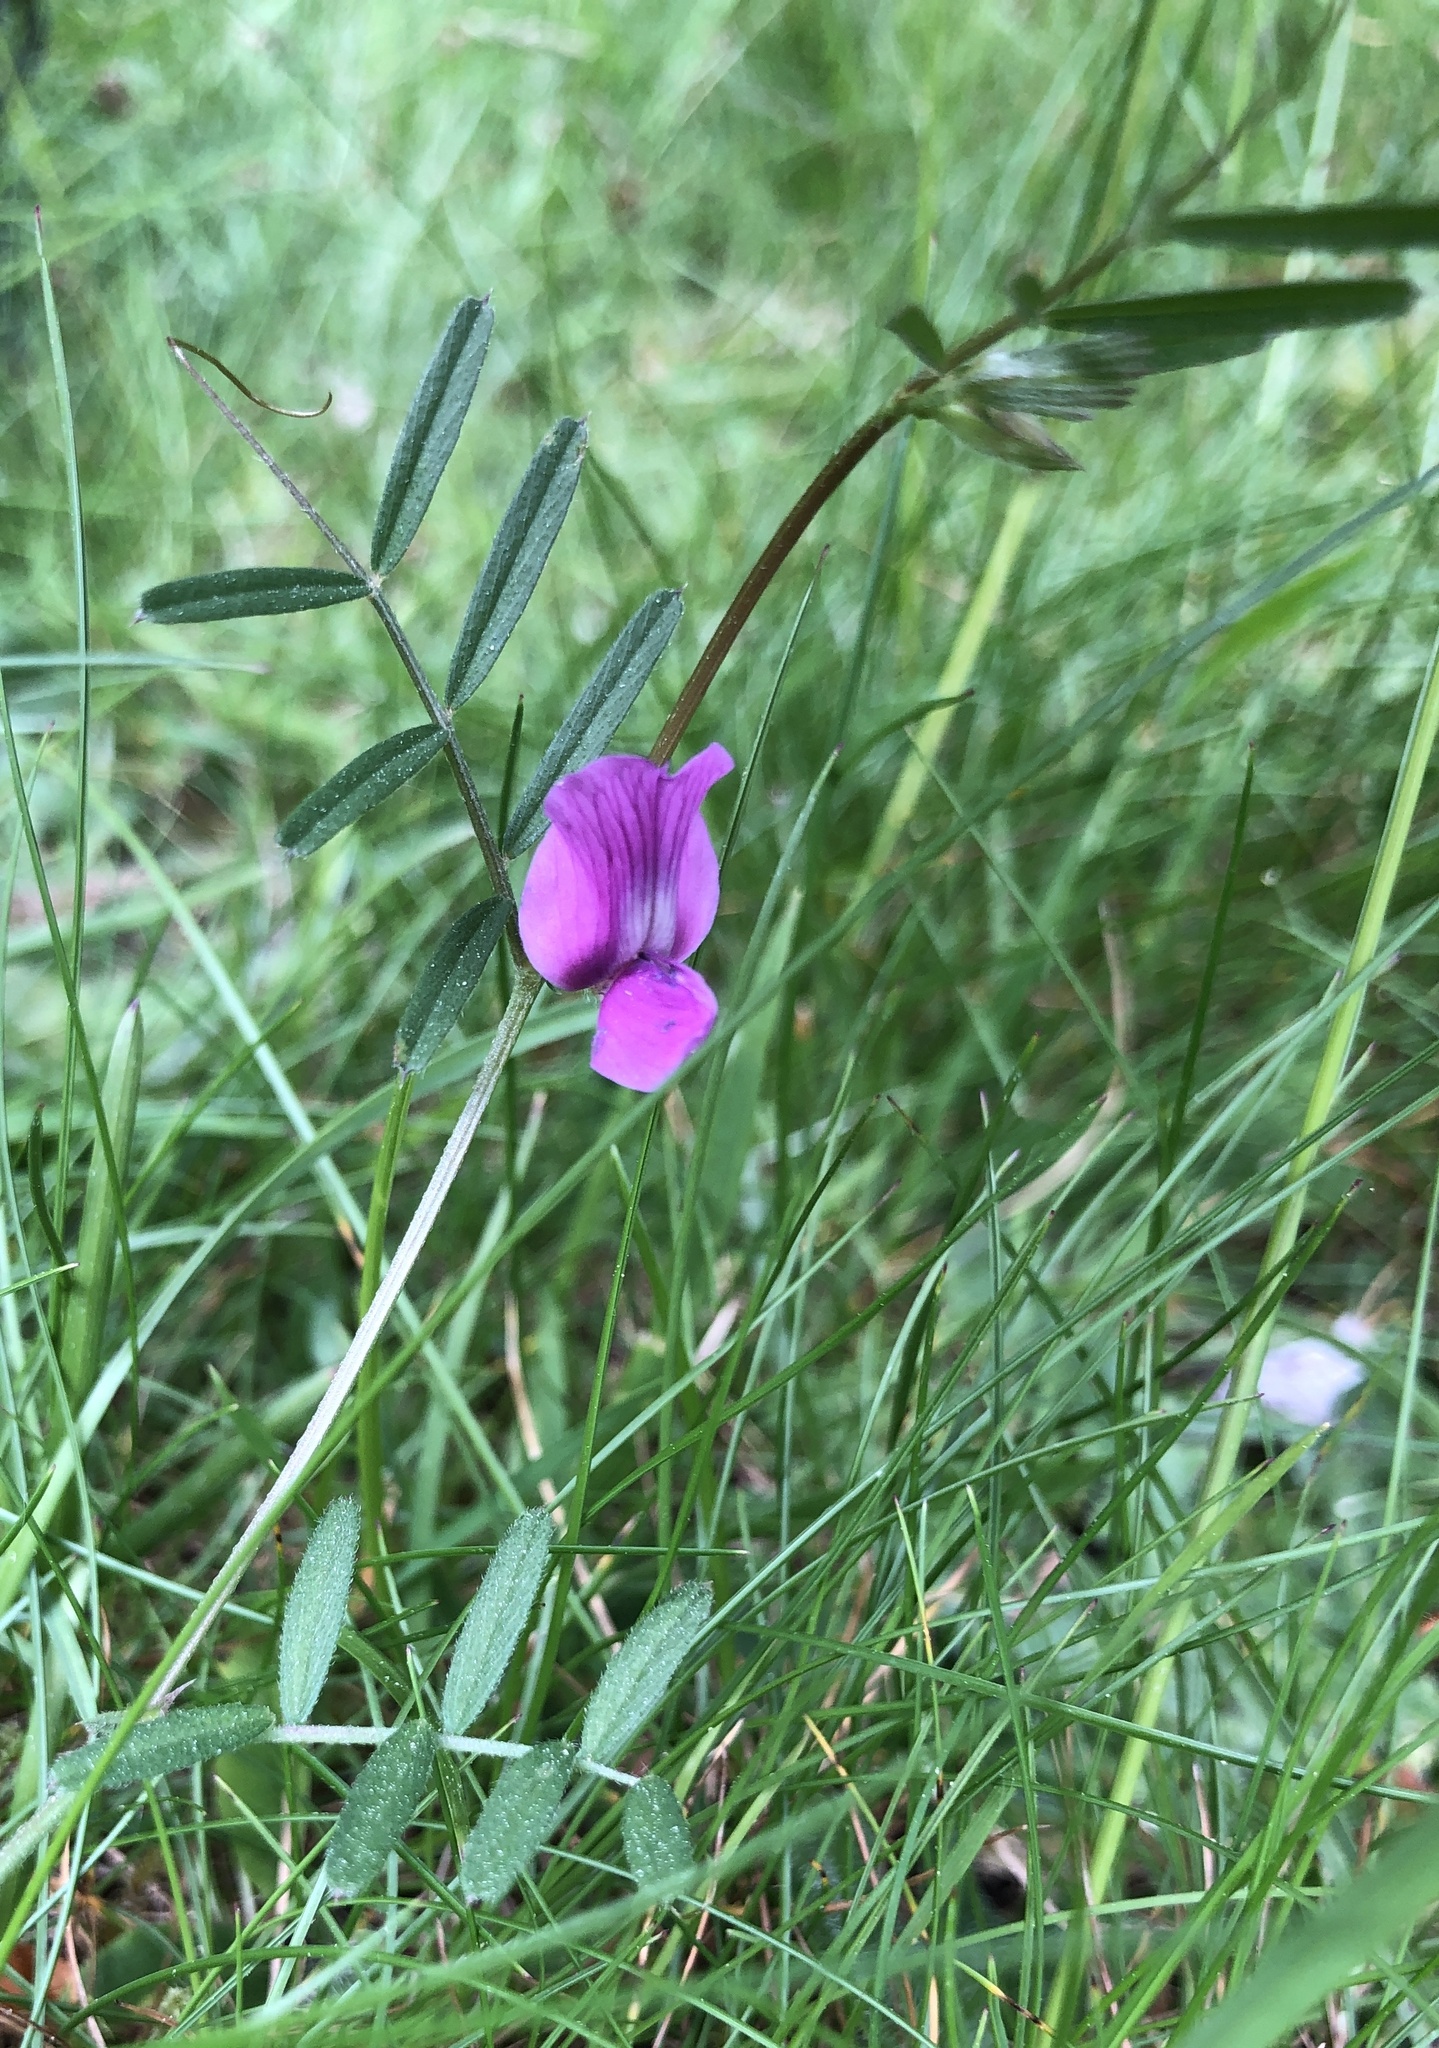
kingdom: Plantae
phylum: Tracheophyta
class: Magnoliopsida
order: Fabales
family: Fabaceae
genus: Vicia
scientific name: Vicia sativa
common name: Garden vetch
